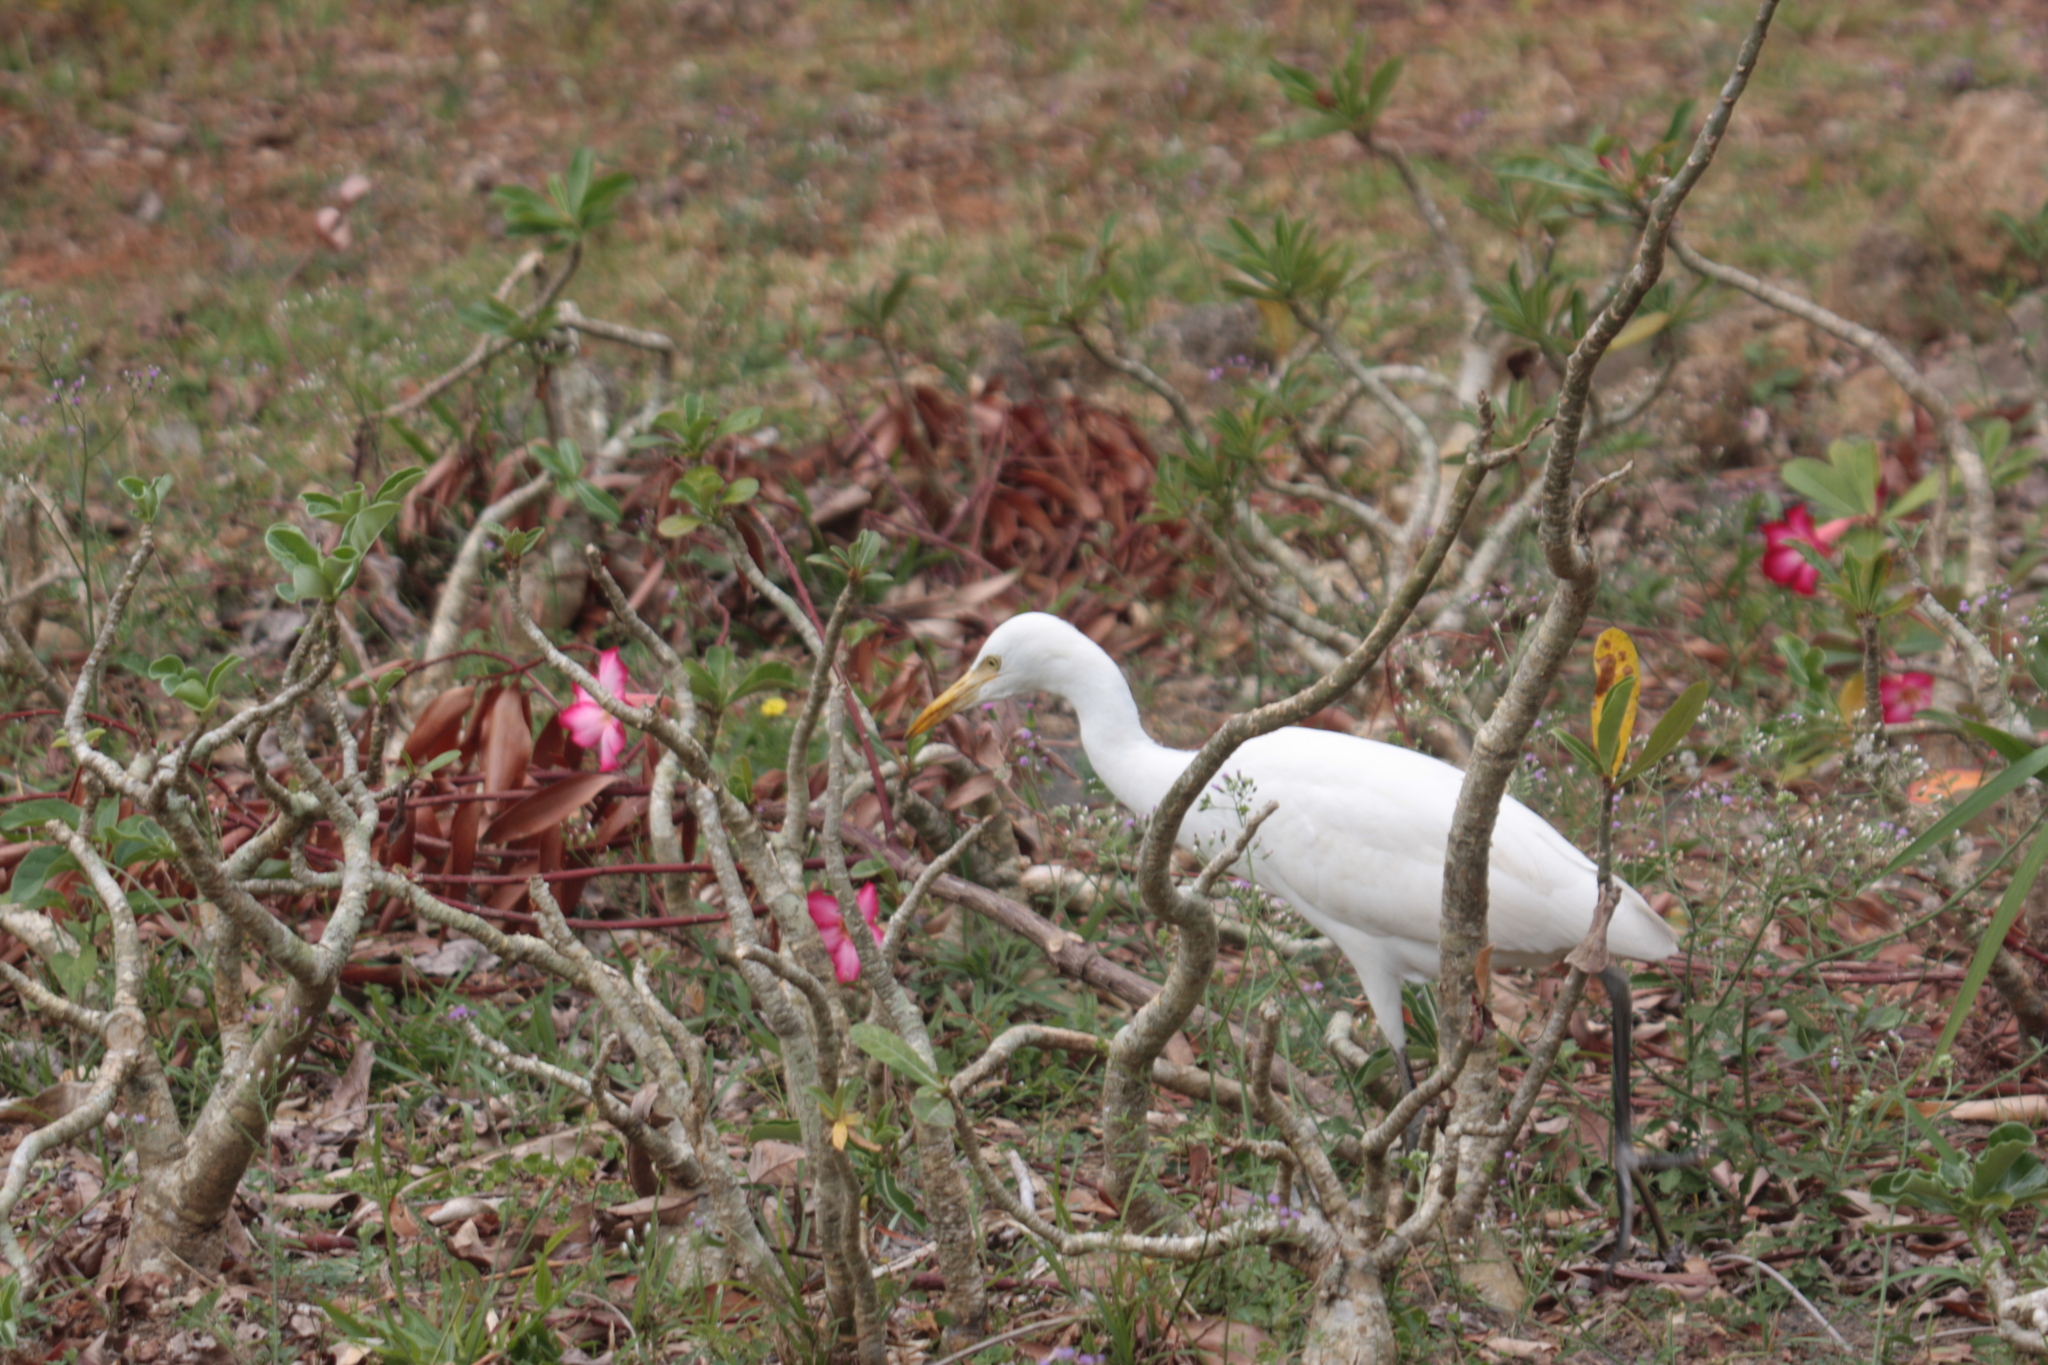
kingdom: Animalia
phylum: Chordata
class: Aves
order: Pelecaniformes
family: Ardeidae
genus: Bubulcus
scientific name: Bubulcus coromandus
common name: Eastern cattle egret
